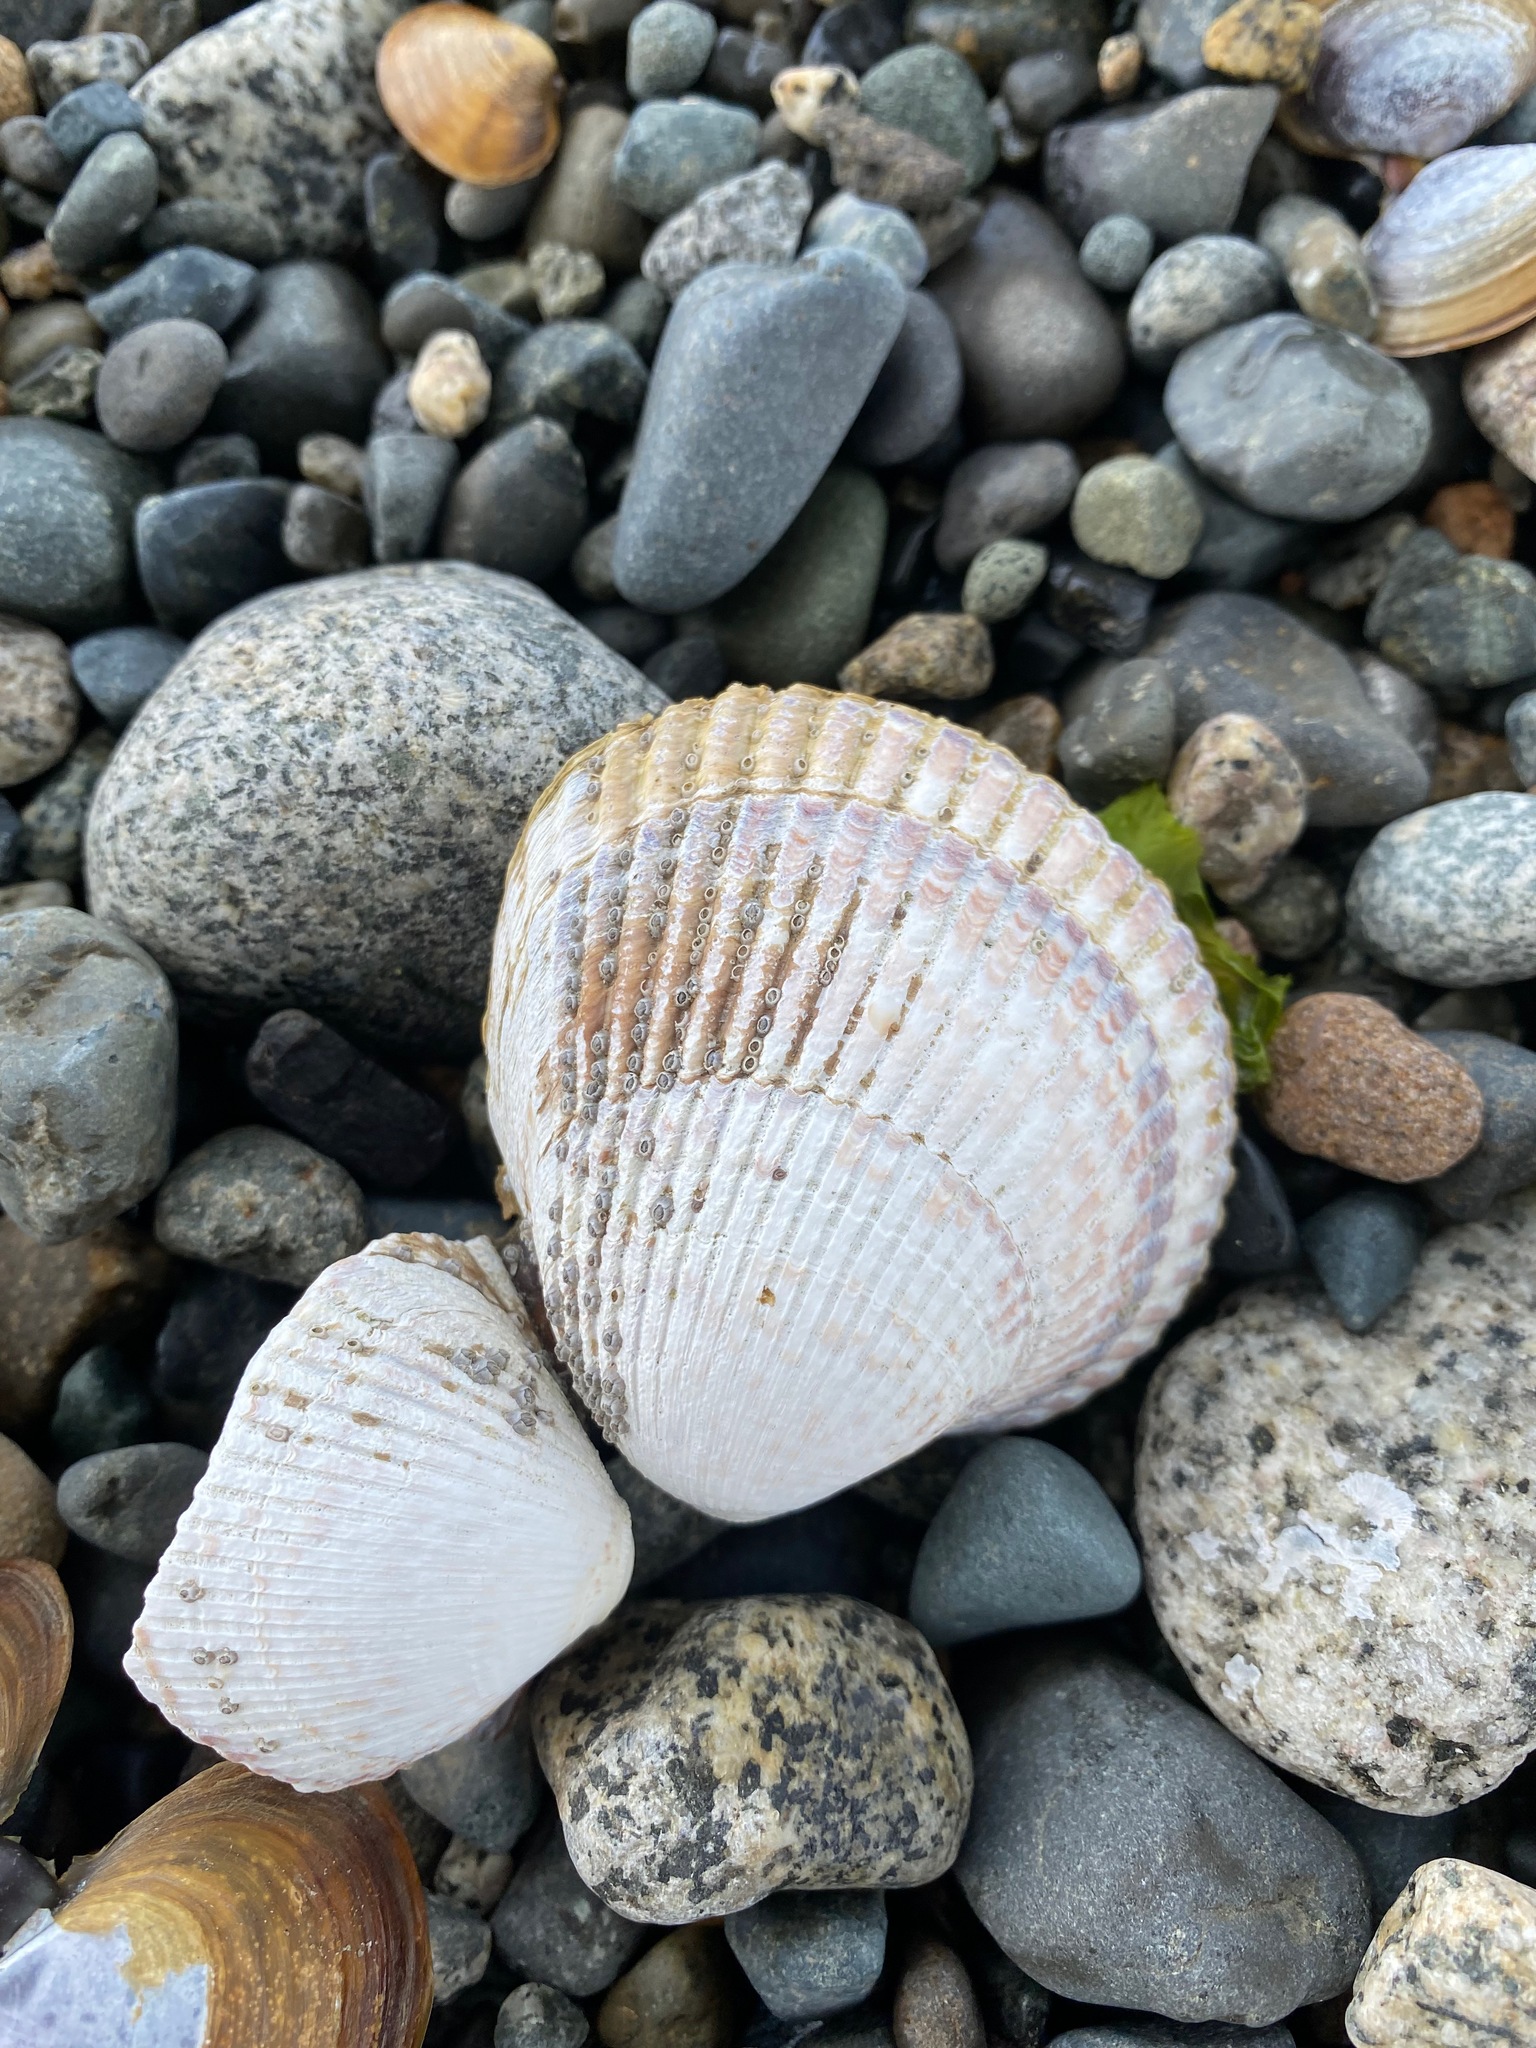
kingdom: Animalia
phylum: Mollusca
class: Bivalvia
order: Cardiida
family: Cardiidae
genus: Clinocardium
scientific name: Clinocardium nuttallii
